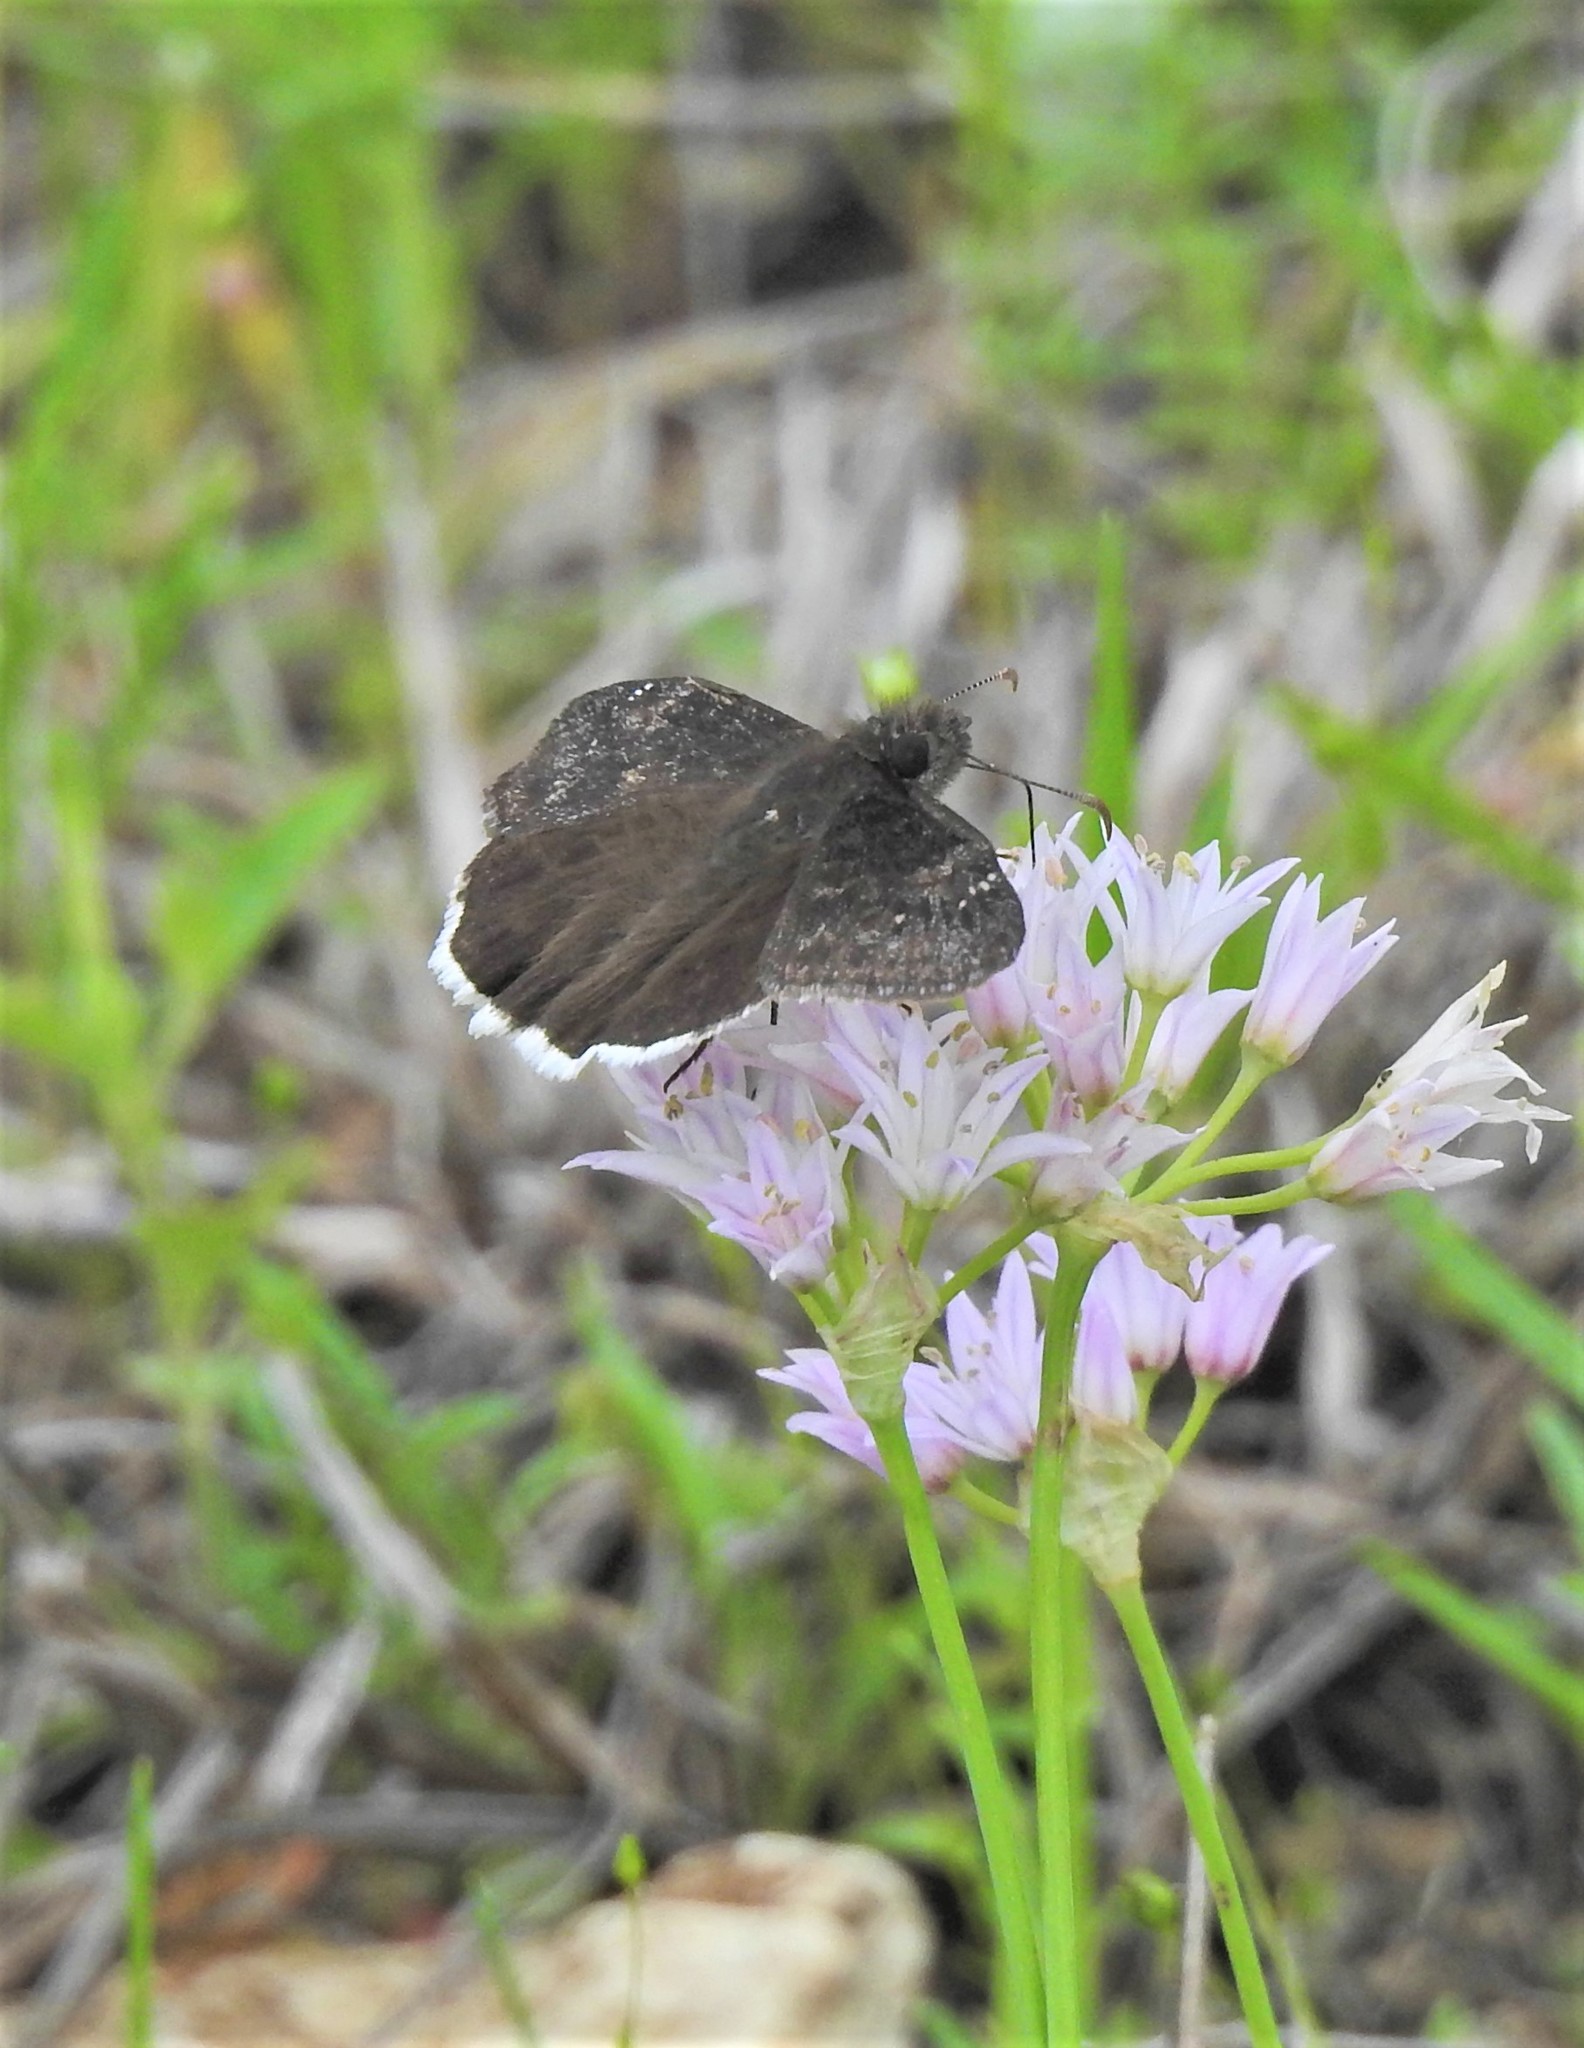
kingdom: Animalia
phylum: Arthropoda
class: Insecta
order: Lepidoptera
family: Hesperiidae
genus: Erynnis
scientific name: Erynnis funeralis
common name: Funereal duskywing
